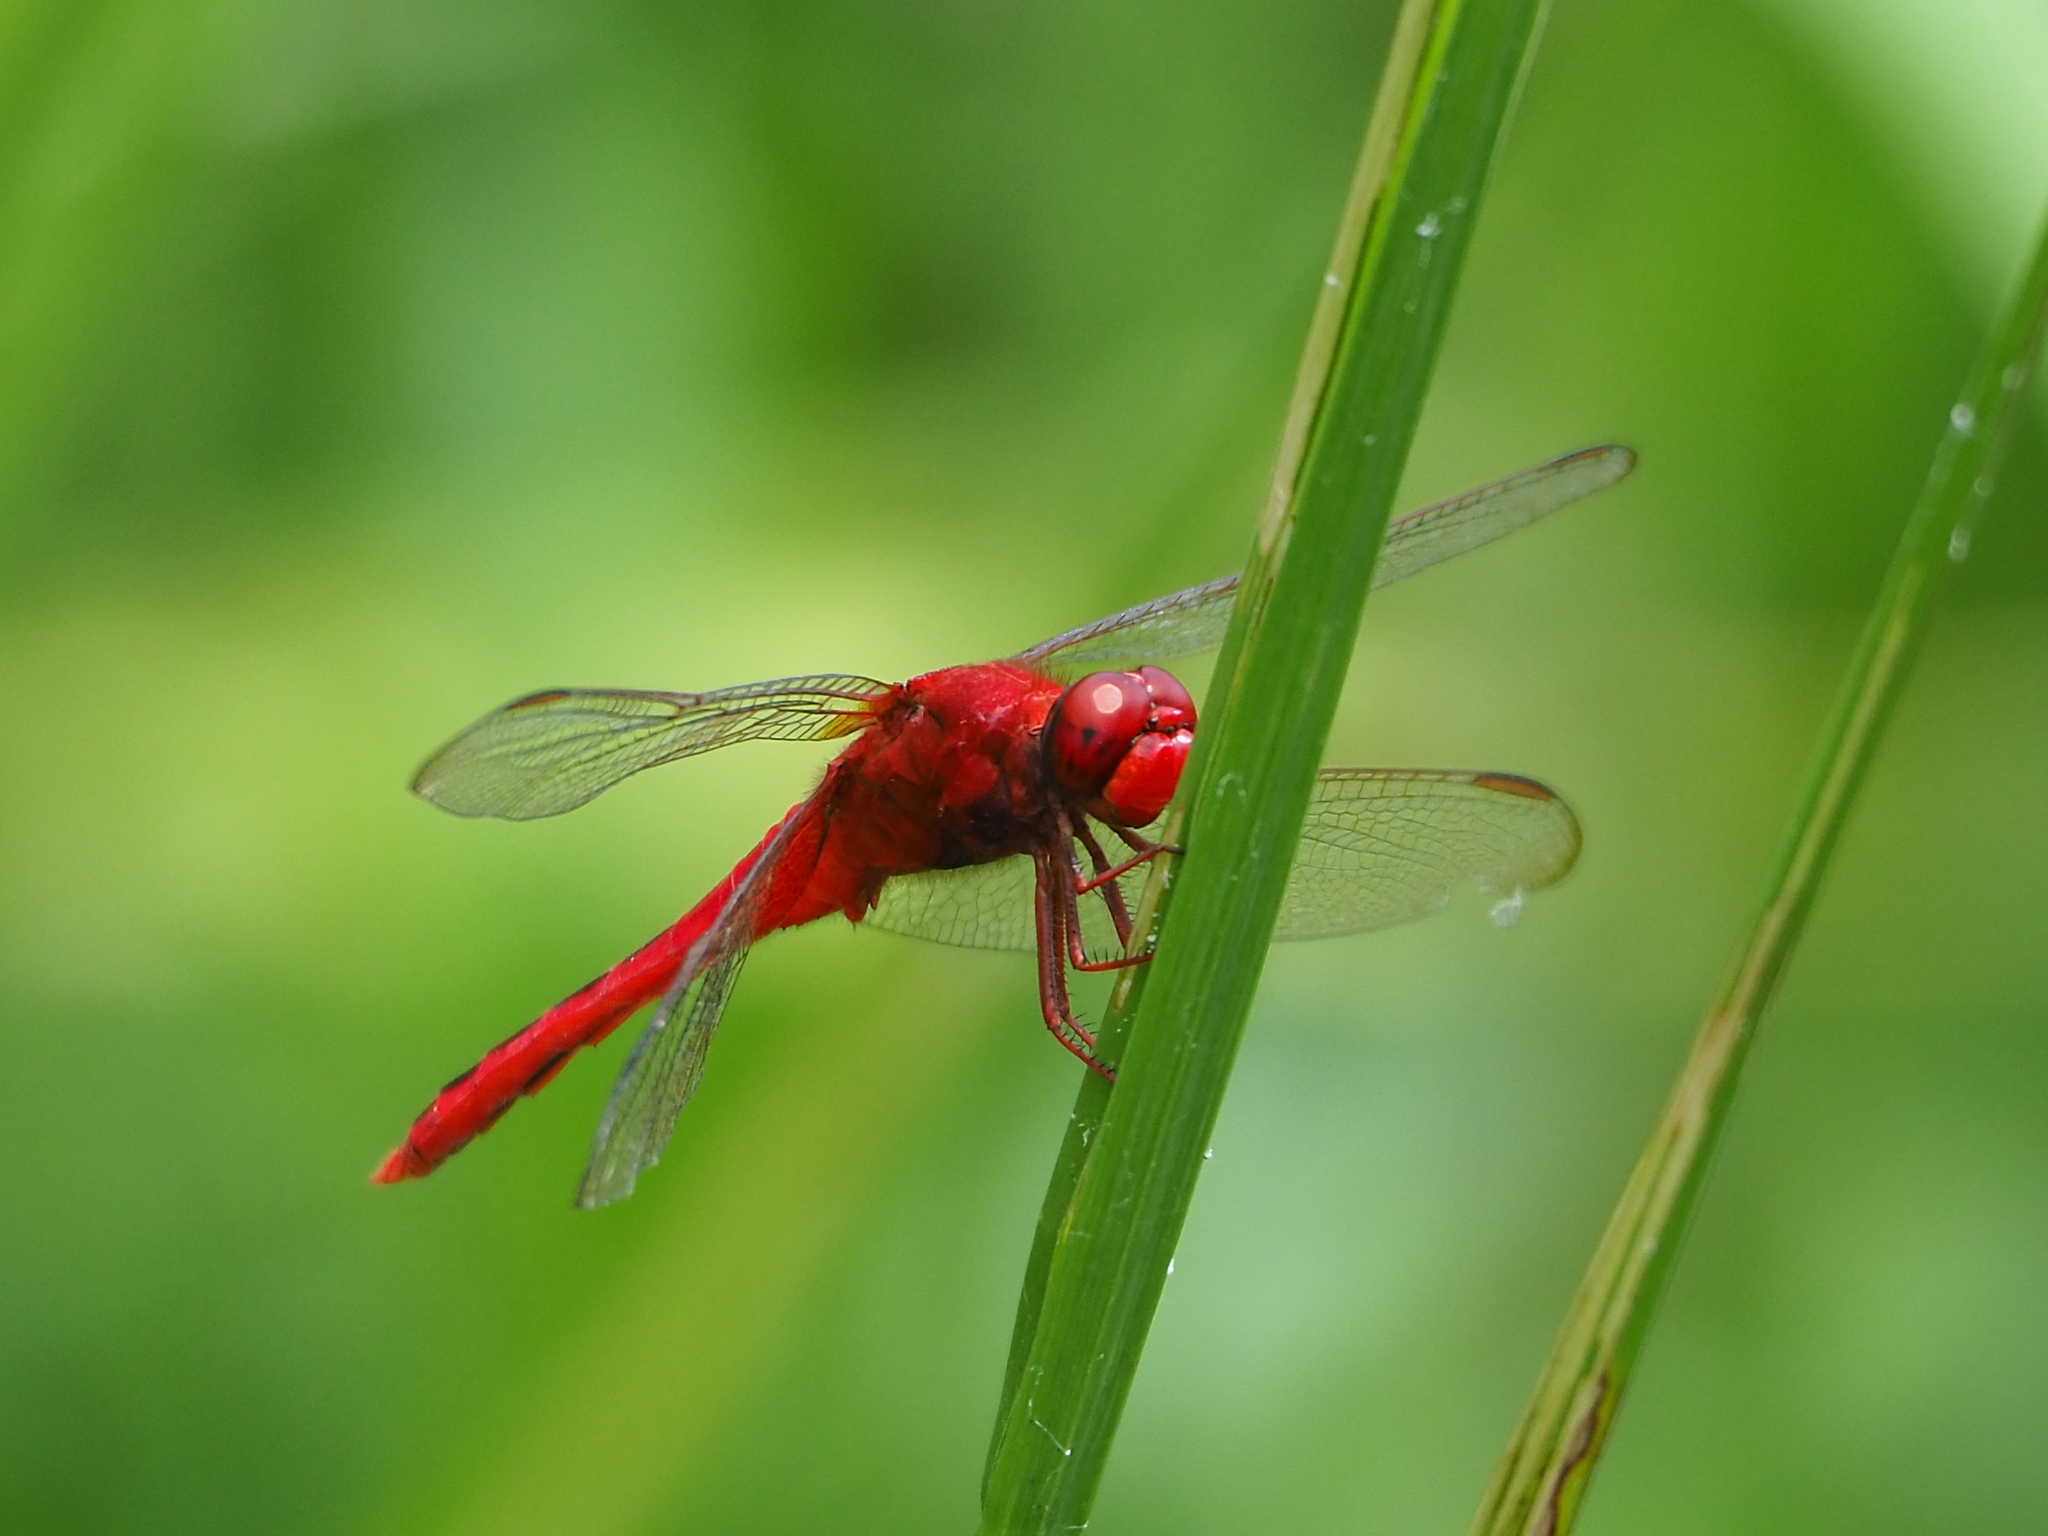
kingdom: Animalia
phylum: Arthropoda
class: Insecta
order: Odonata
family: Libellulidae
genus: Crocothemis
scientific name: Crocothemis servilia
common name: Scarlet skimmer
